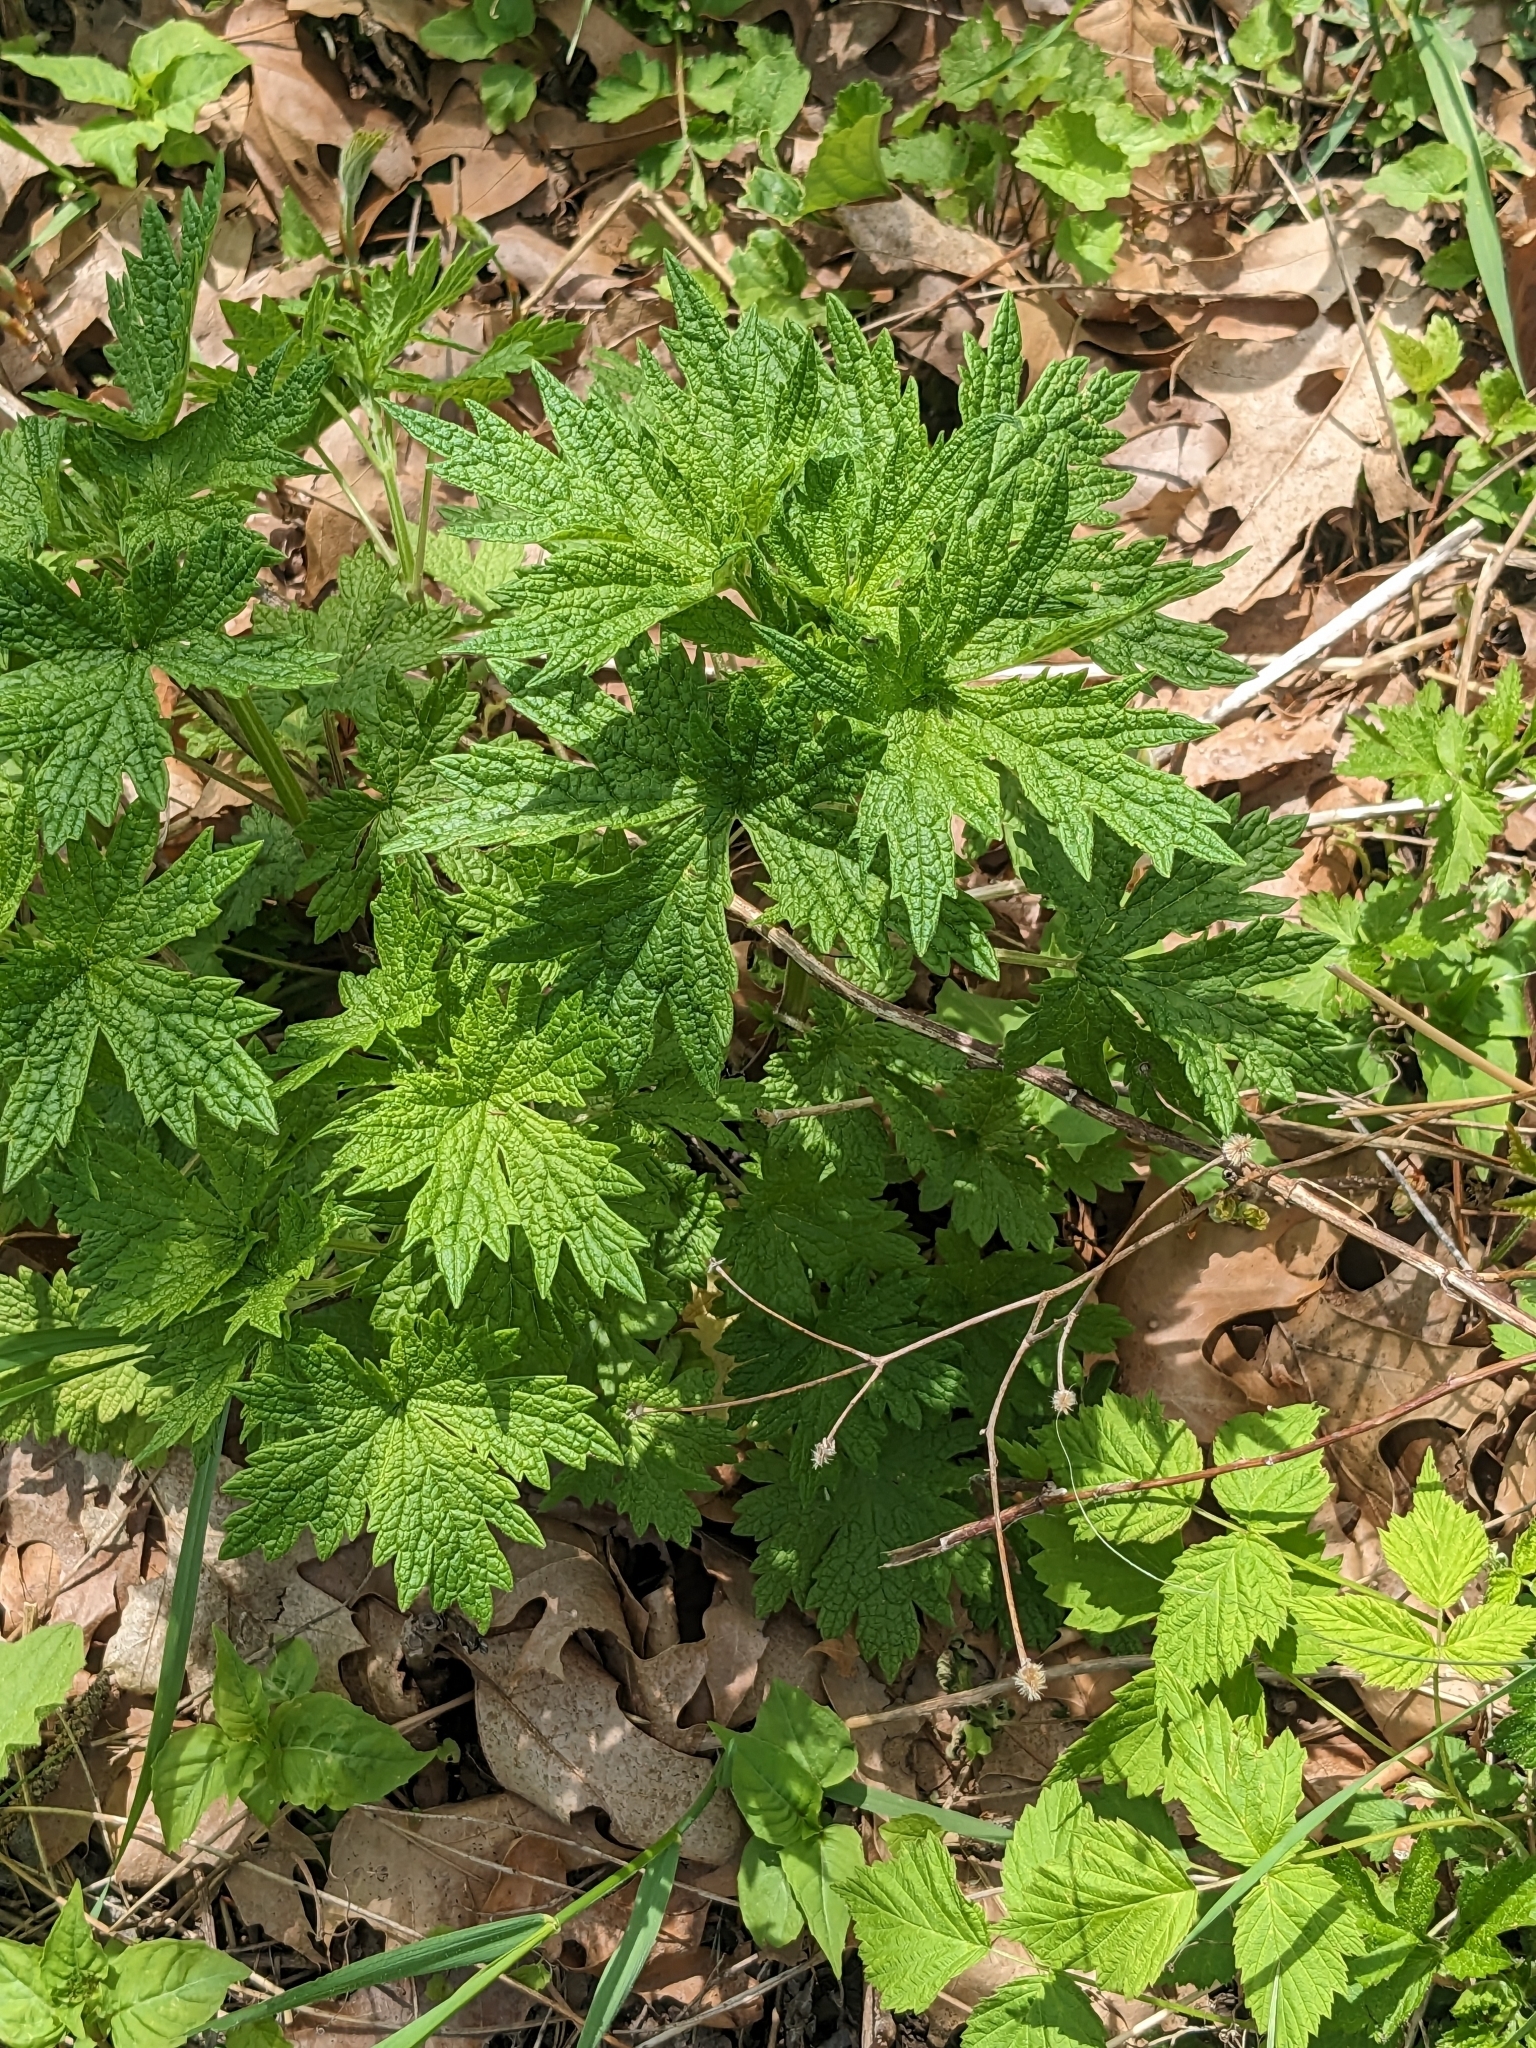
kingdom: Plantae
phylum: Tracheophyta
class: Magnoliopsida
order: Lamiales
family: Lamiaceae
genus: Leonurus
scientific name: Leonurus cardiaca
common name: Motherwort
